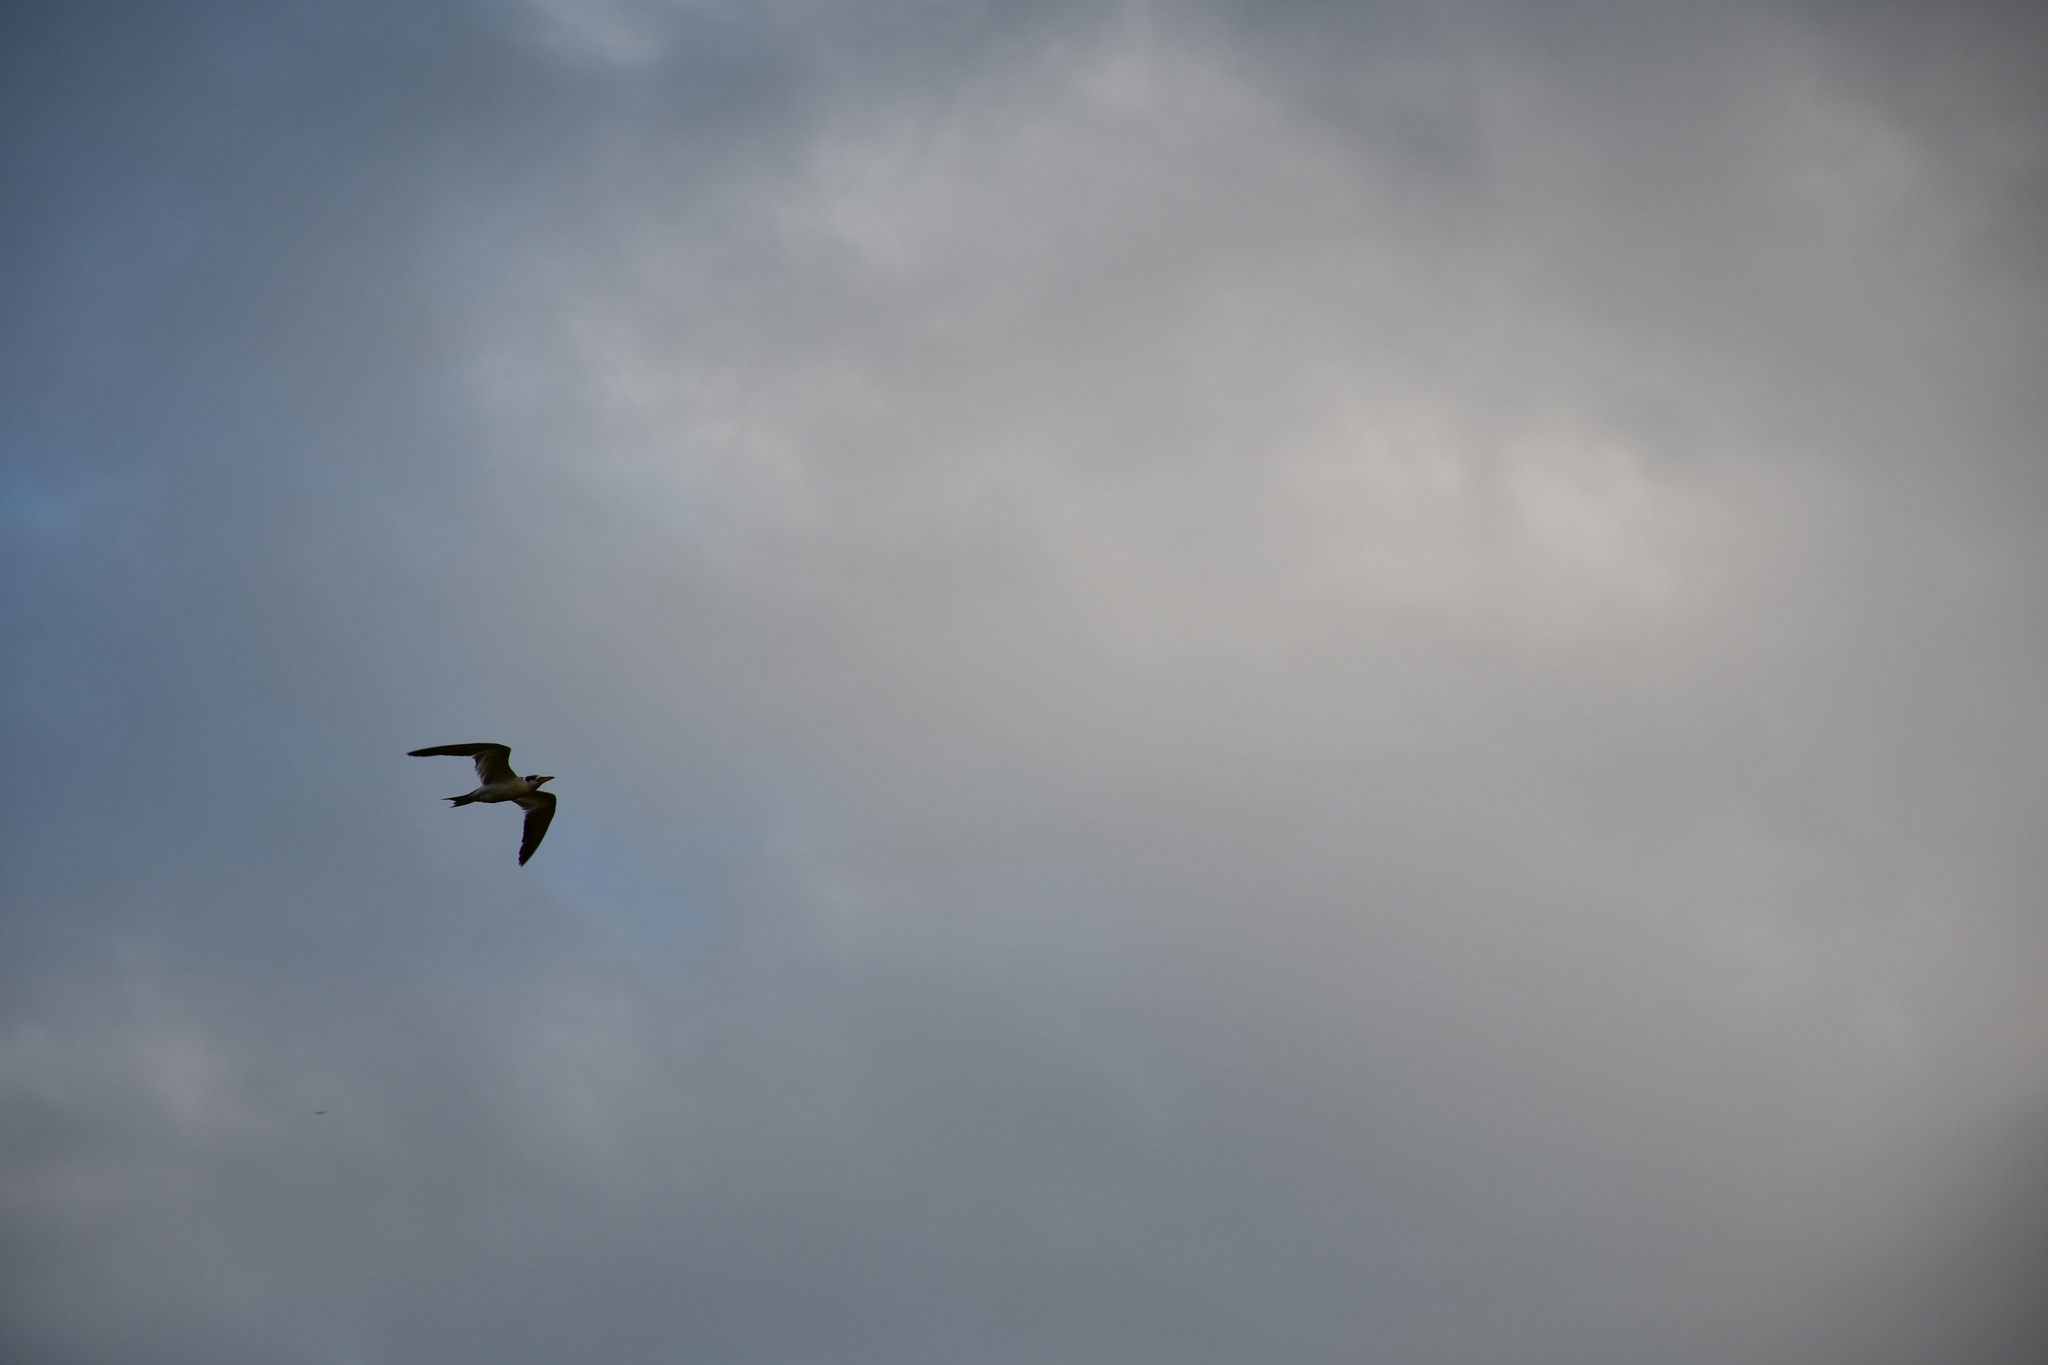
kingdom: Animalia
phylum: Chordata
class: Aves
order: Charadriiformes
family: Laridae
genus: Phaetusa
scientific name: Phaetusa simplex
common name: Large-billed tern
